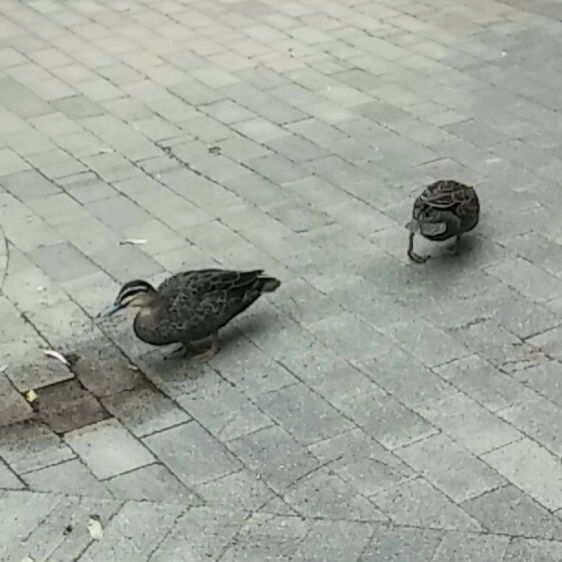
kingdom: Animalia
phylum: Chordata
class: Aves
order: Anseriformes
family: Anatidae
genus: Anas
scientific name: Anas superciliosa
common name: Pacific black duck
